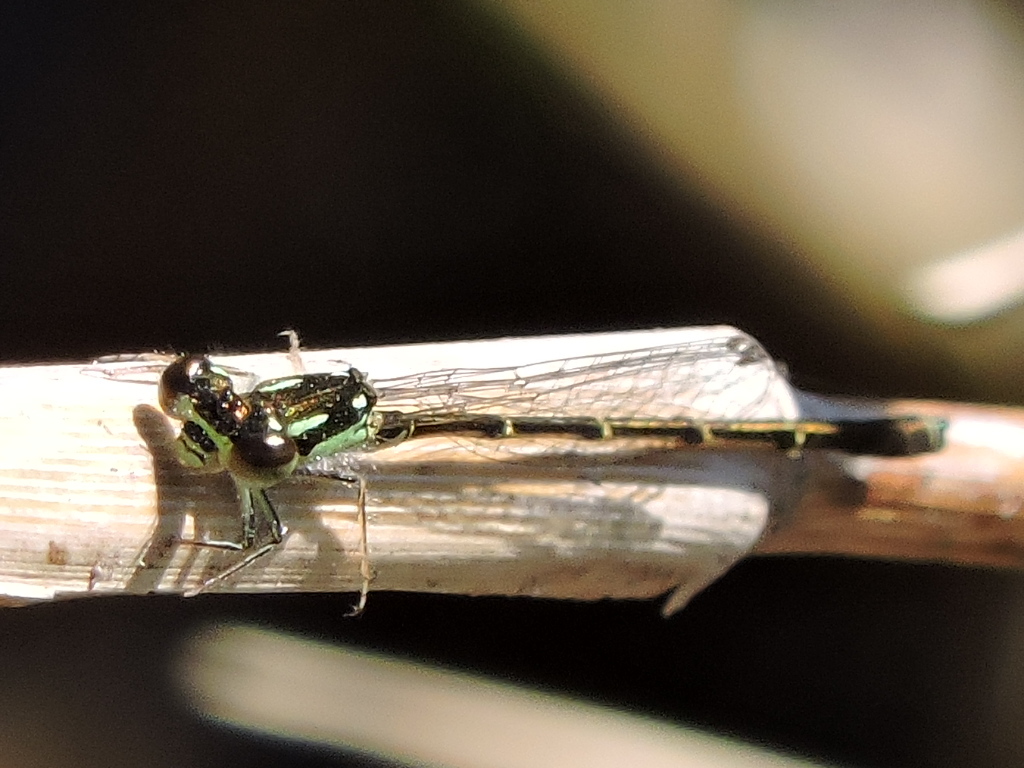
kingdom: Animalia
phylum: Arthropoda
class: Insecta
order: Odonata
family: Coenagrionidae
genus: Ischnura
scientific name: Ischnura posita
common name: Fragile forktail
